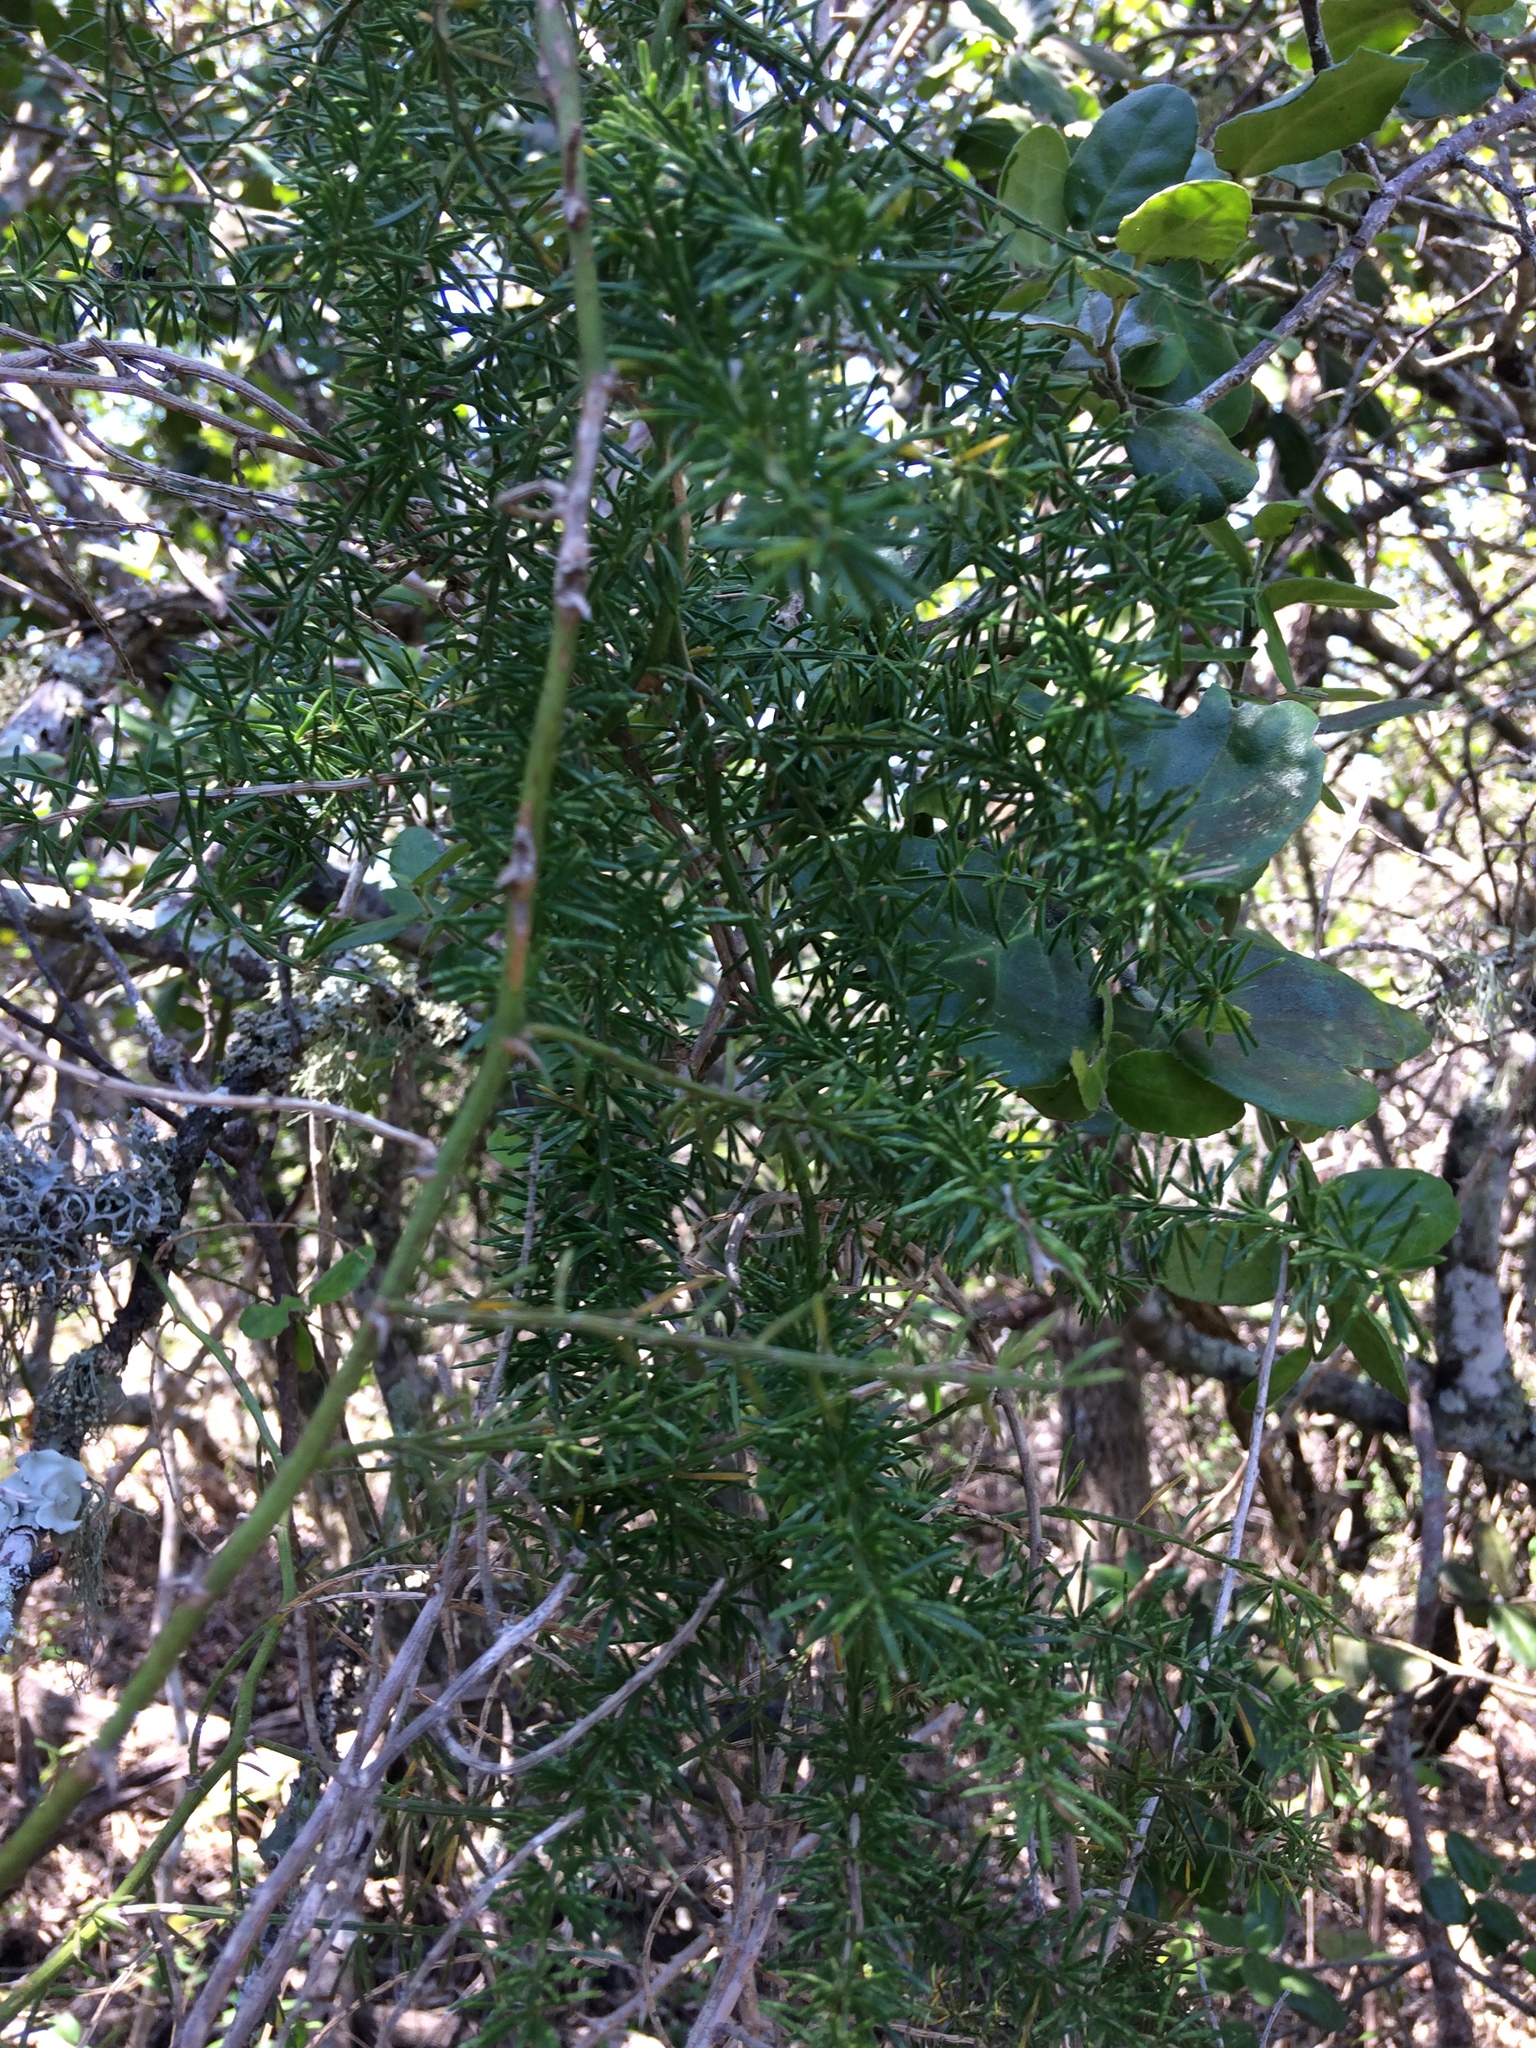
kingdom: Plantae
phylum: Tracheophyta
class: Liliopsida
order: Asparagales
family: Asparagaceae
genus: Asparagus
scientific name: Asparagus africanus
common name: Asparagus-fern
